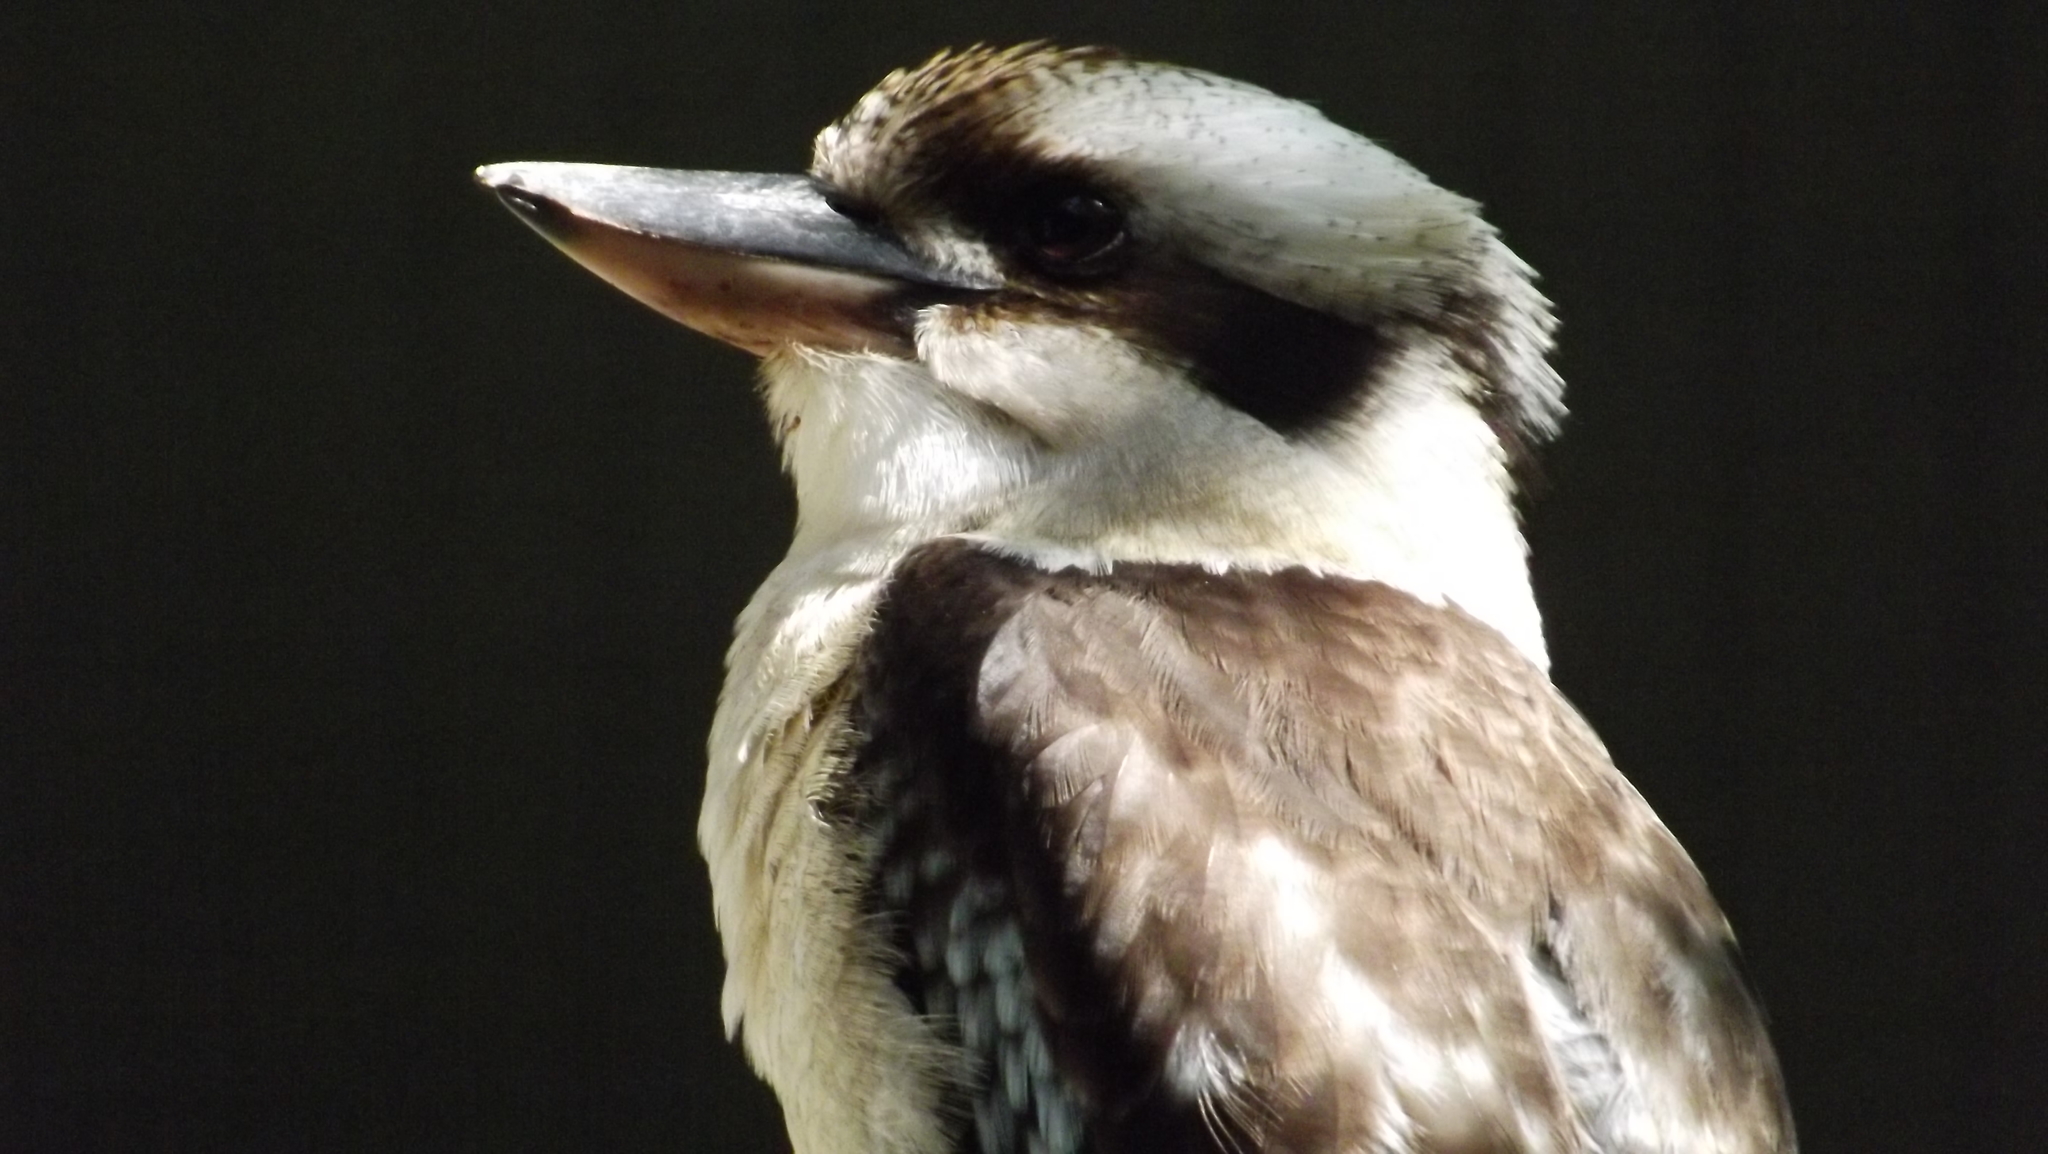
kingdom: Animalia
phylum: Chordata
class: Aves
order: Coraciiformes
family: Alcedinidae
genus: Dacelo
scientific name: Dacelo novaeguineae
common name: Laughing kookaburra
